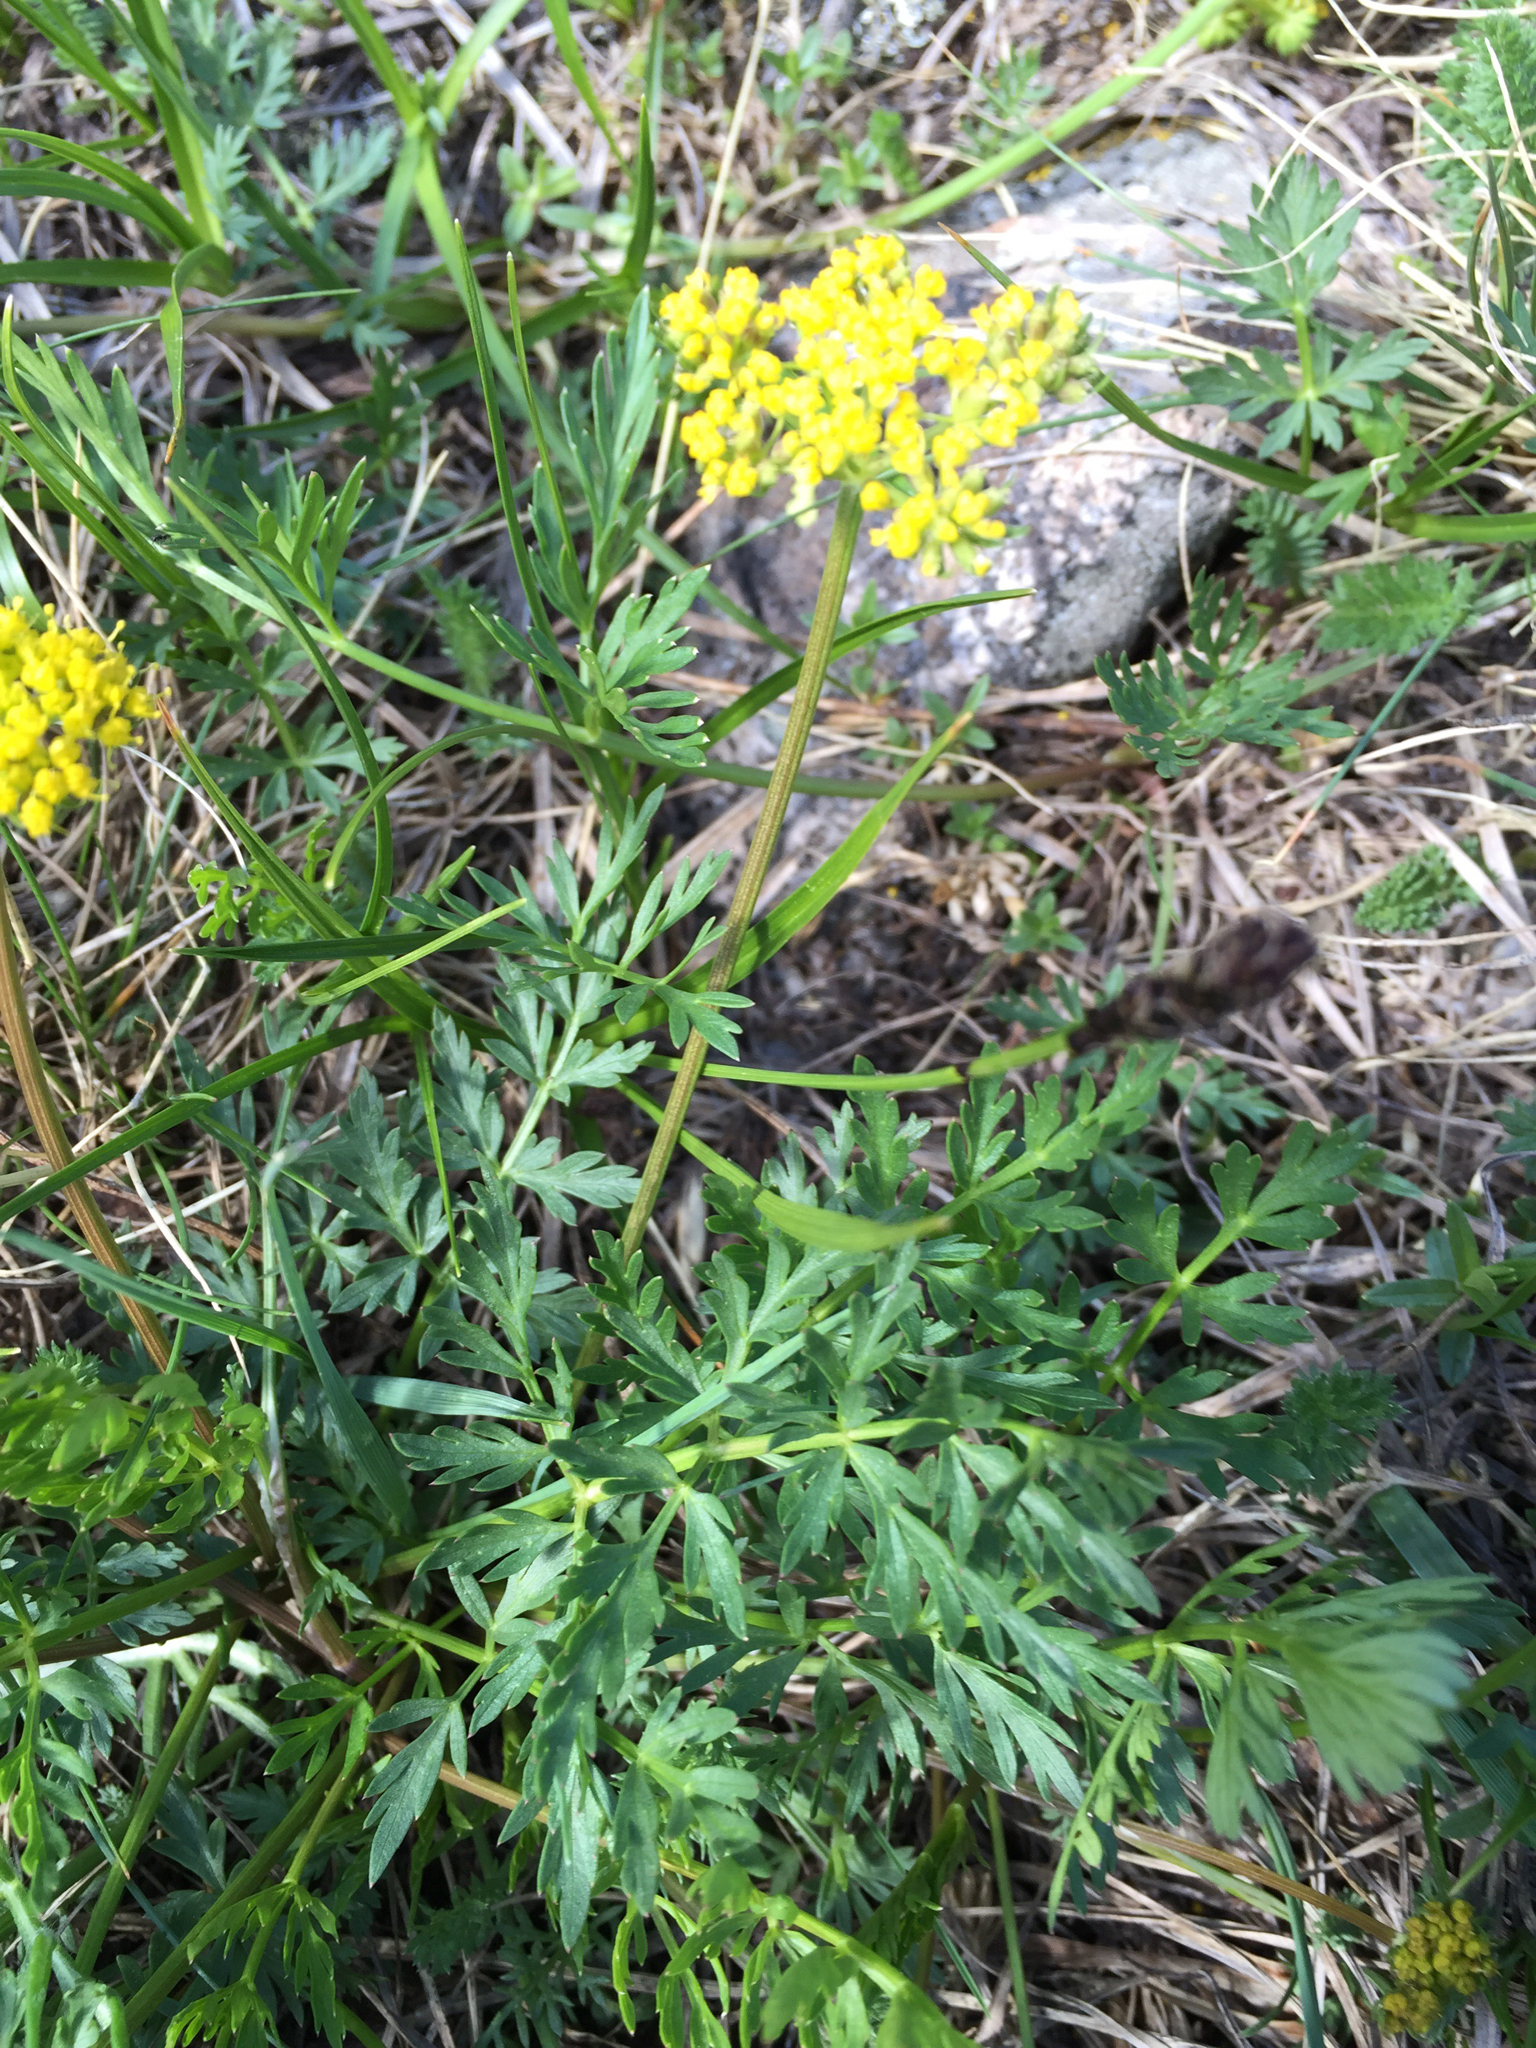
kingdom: Plantae
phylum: Tracheophyta
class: Magnoliopsida
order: Apiales
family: Apiaceae
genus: Cymopterus
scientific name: Cymopterus lemmonii
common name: Lemmon's spring-parsley
